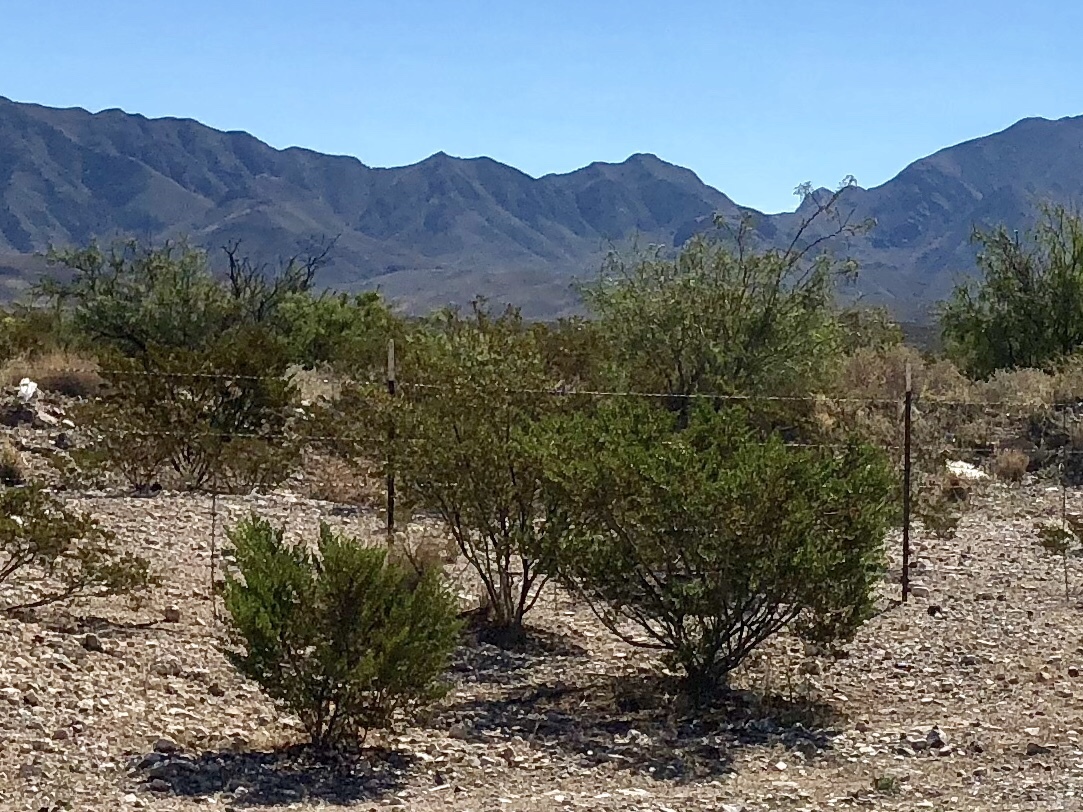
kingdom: Plantae
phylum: Tracheophyta
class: Magnoliopsida
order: Zygophyllales
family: Zygophyllaceae
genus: Larrea
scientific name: Larrea tridentata
